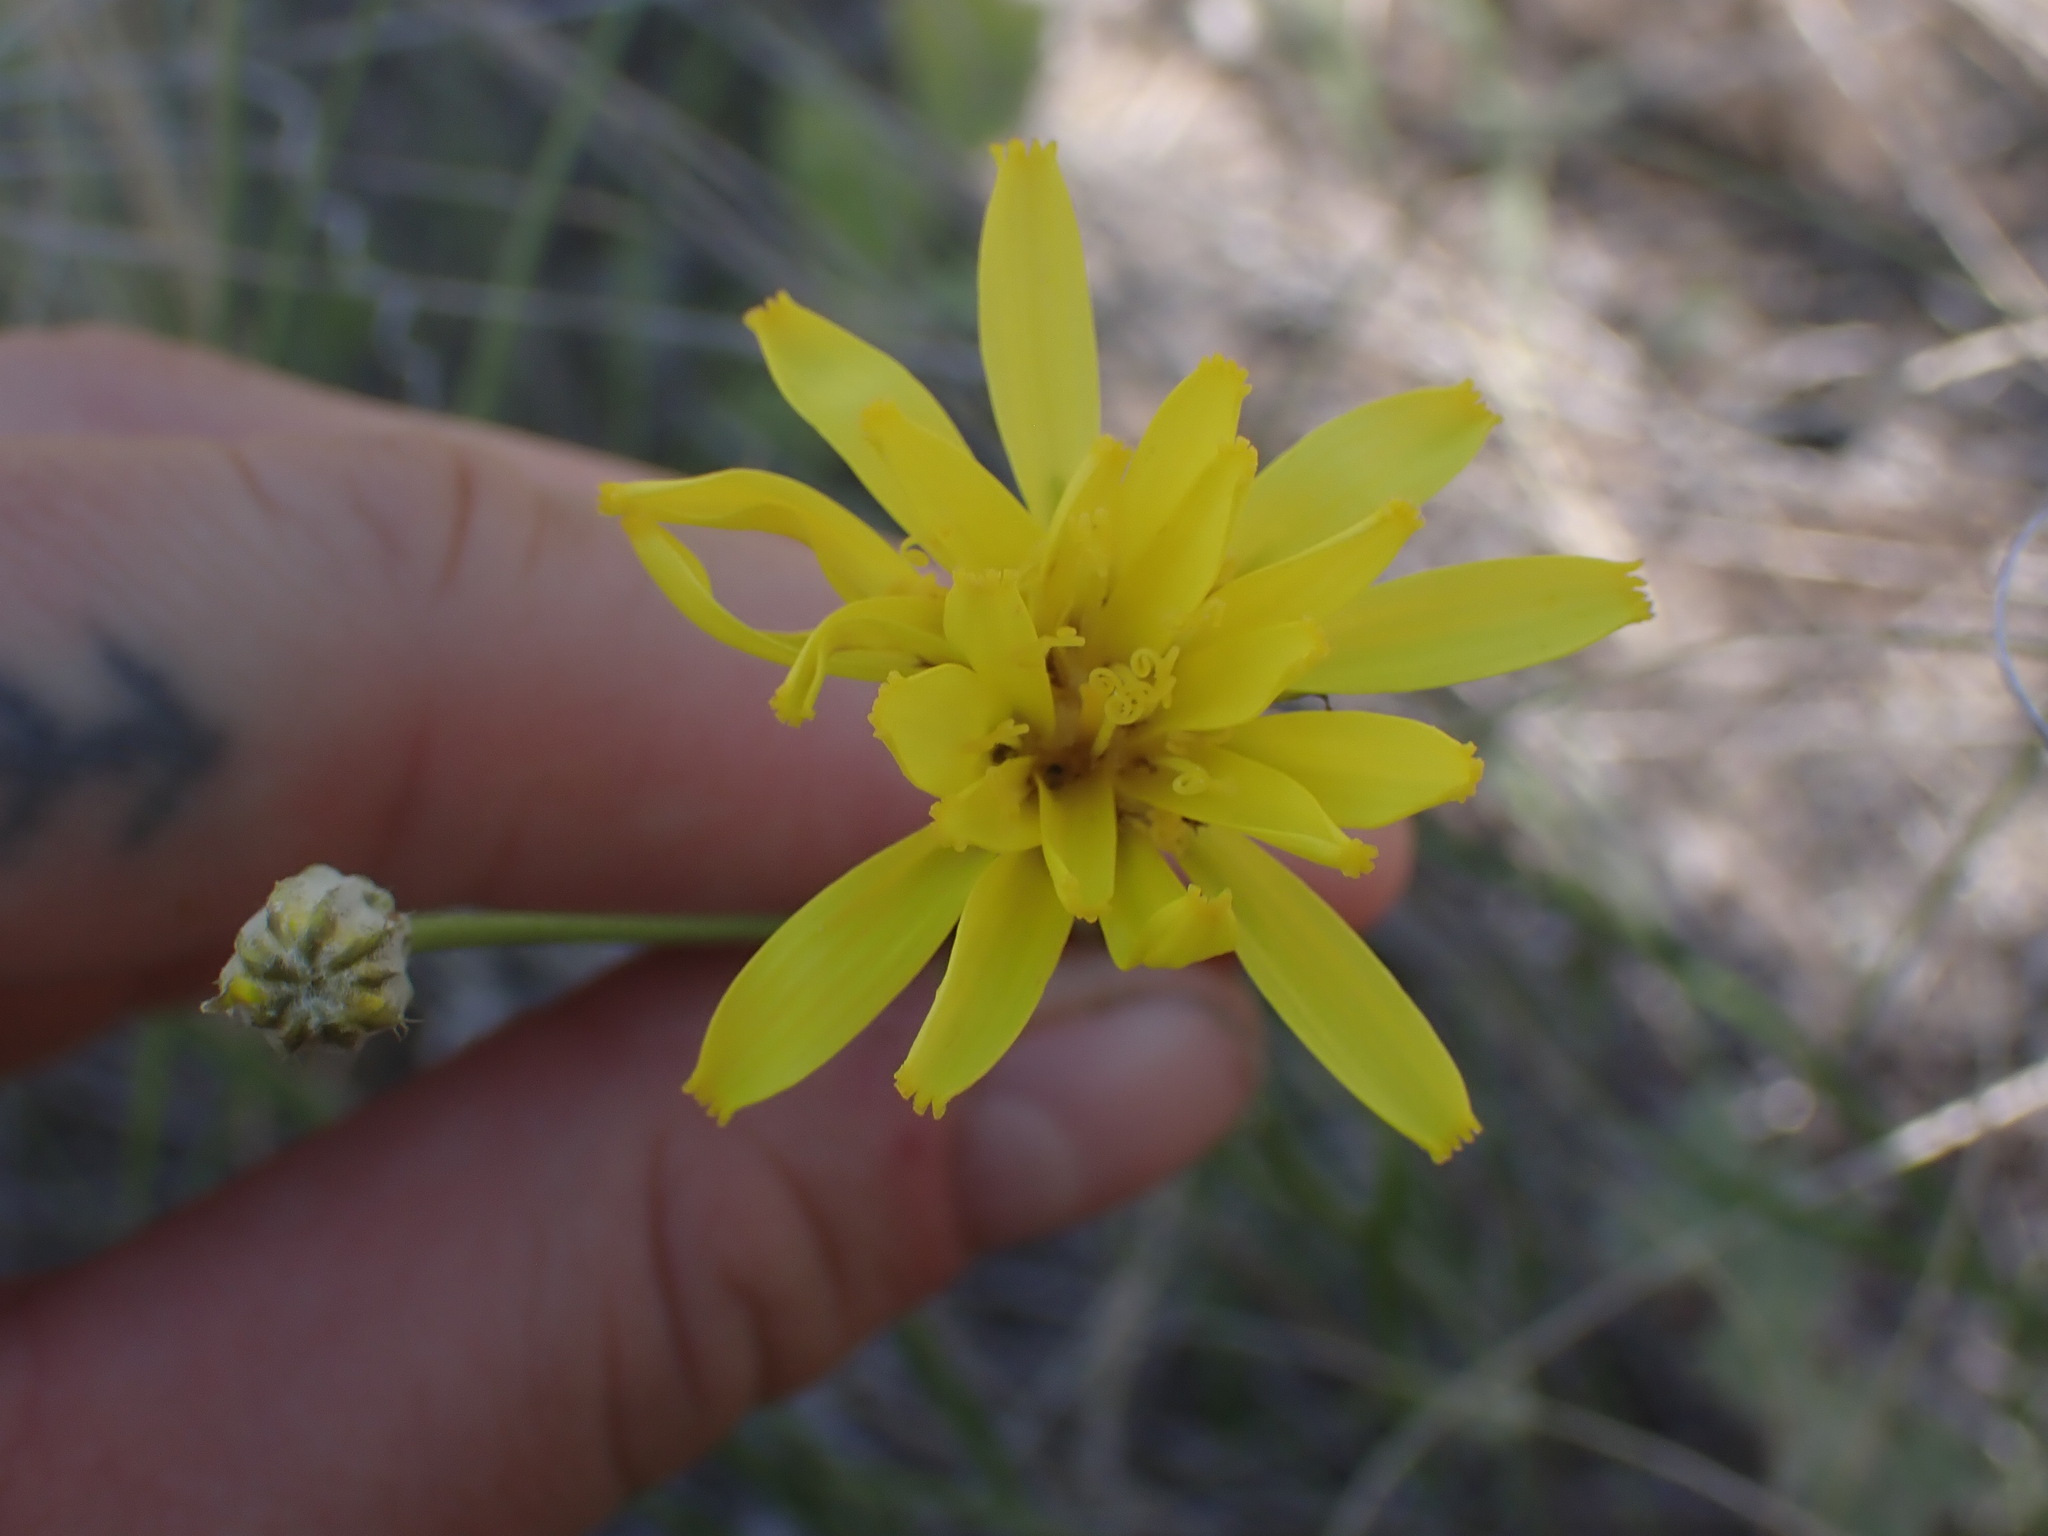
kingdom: Plantae
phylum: Tracheophyta
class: Magnoliopsida
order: Asterales
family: Asteraceae
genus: Crepis
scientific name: Crepis atribarba
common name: Dark hawk's-beard
